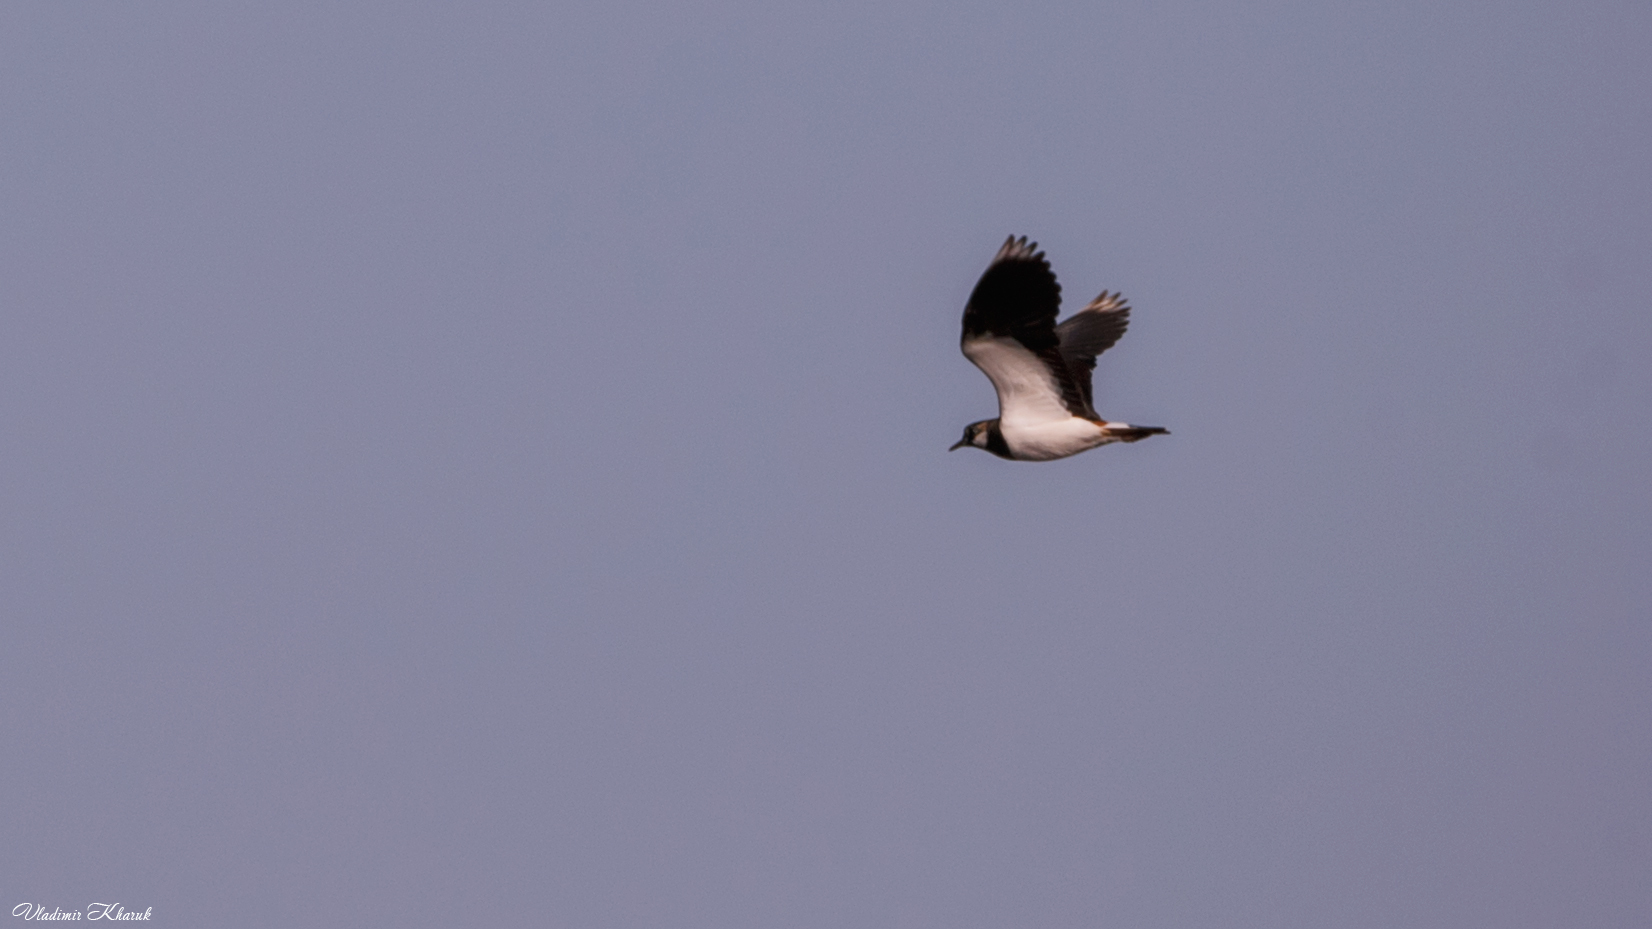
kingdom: Animalia
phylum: Chordata
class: Aves
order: Charadriiformes
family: Charadriidae
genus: Vanellus
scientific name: Vanellus vanellus
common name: Northern lapwing
